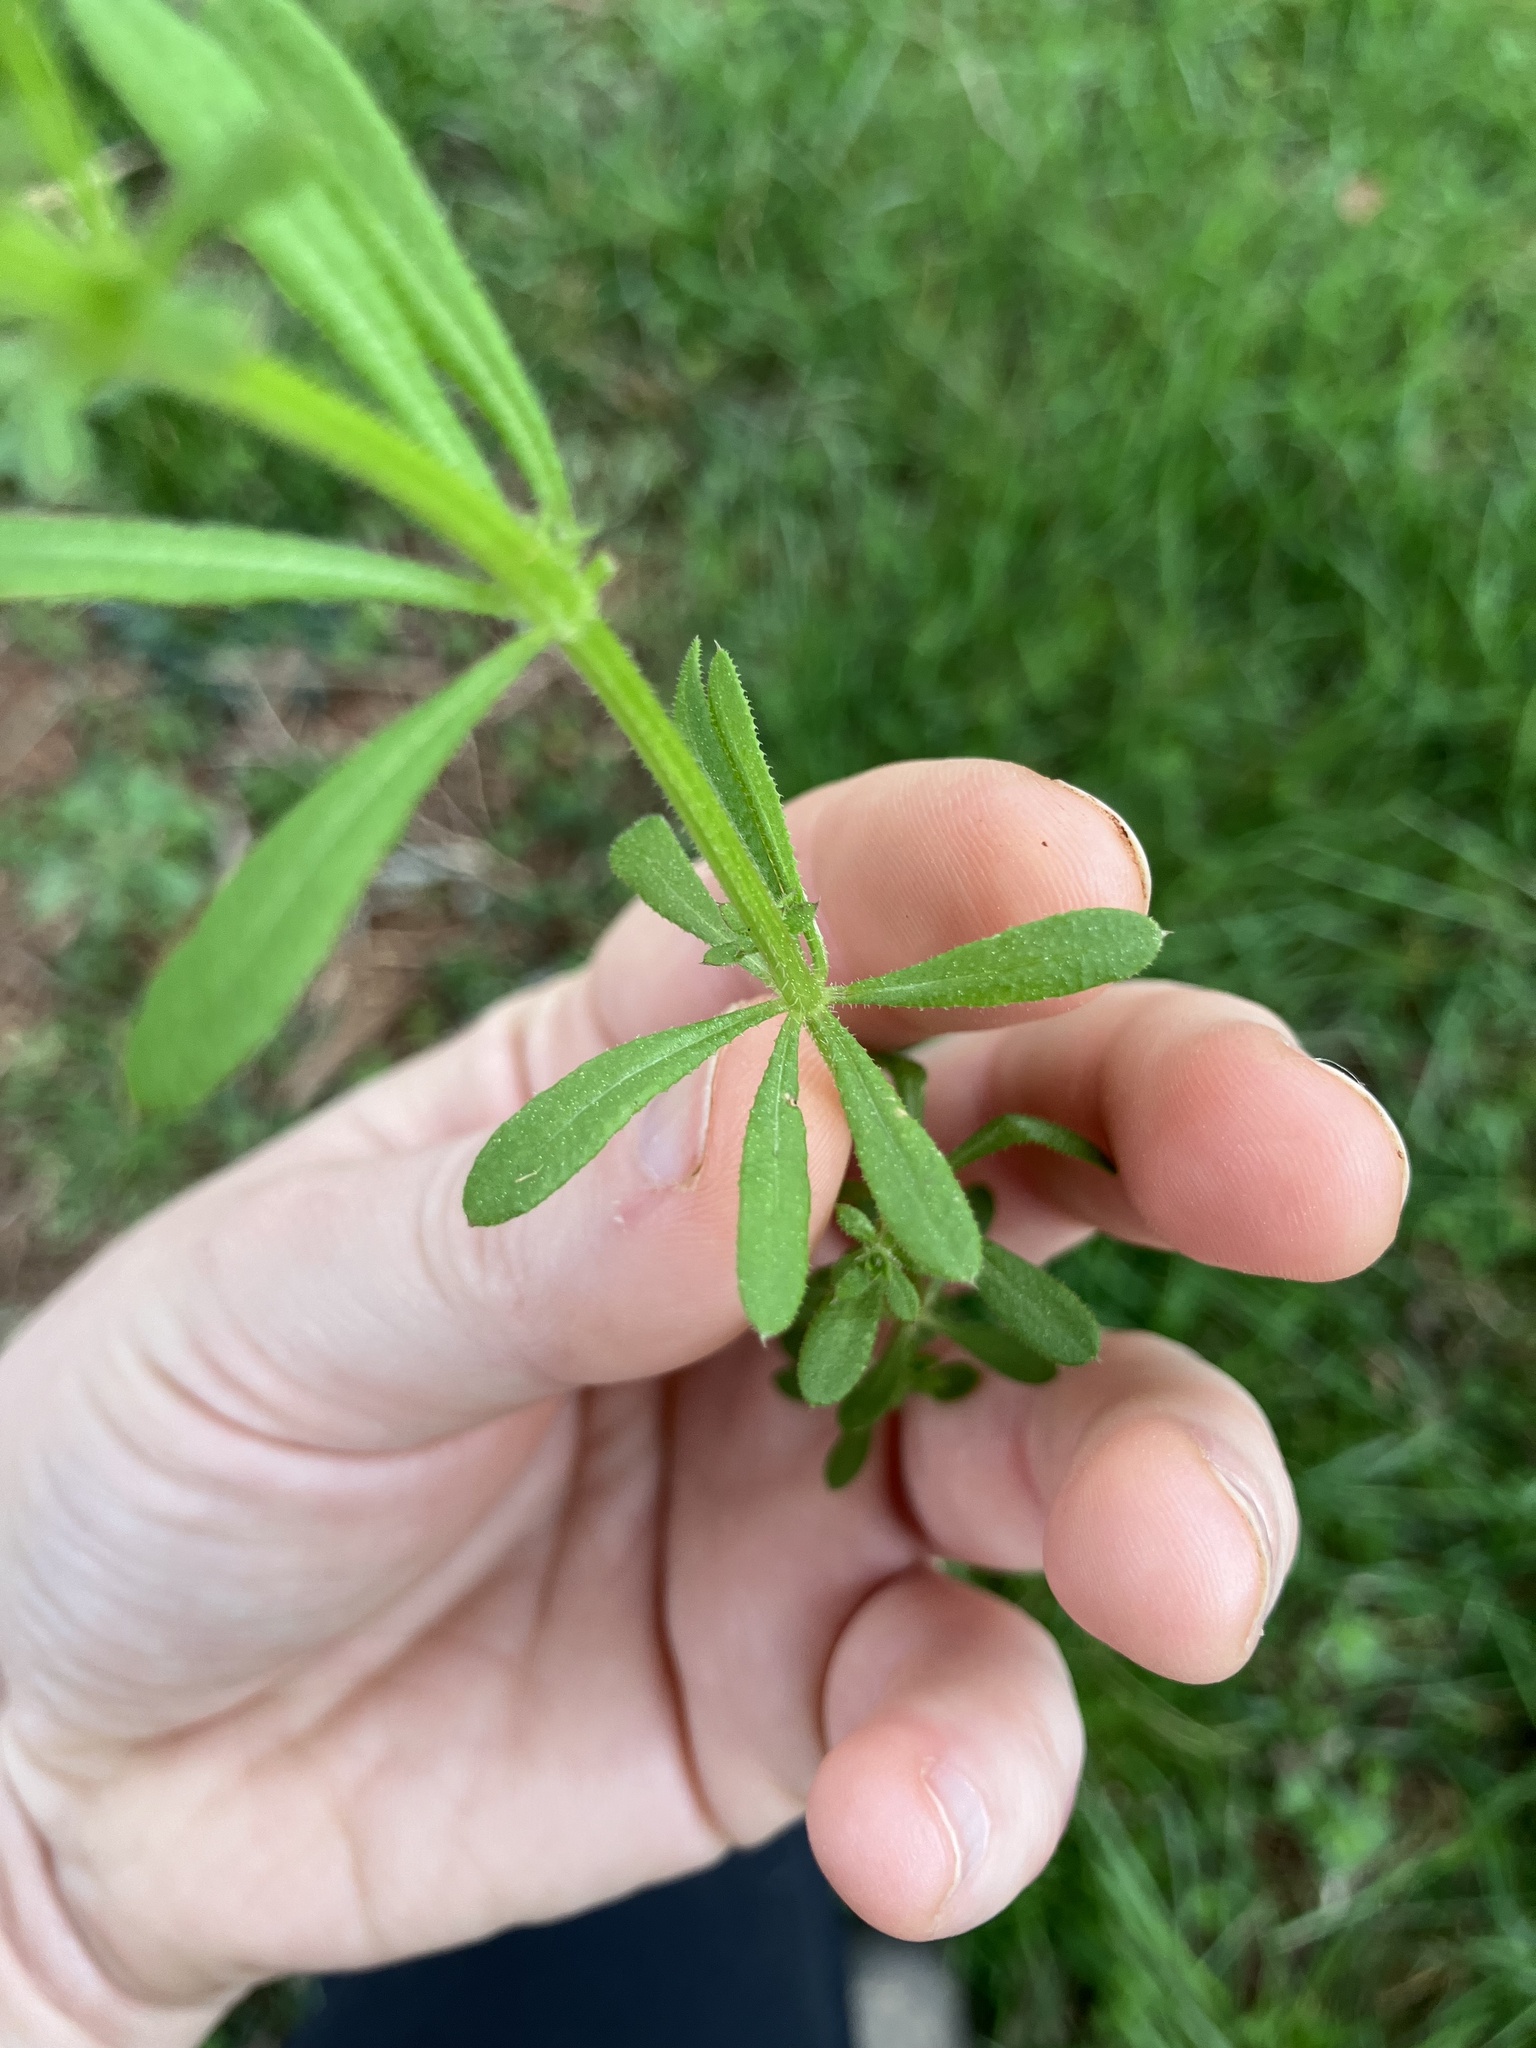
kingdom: Plantae
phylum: Tracheophyta
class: Magnoliopsida
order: Gentianales
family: Rubiaceae
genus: Galium
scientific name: Galium aparine
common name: Cleavers
